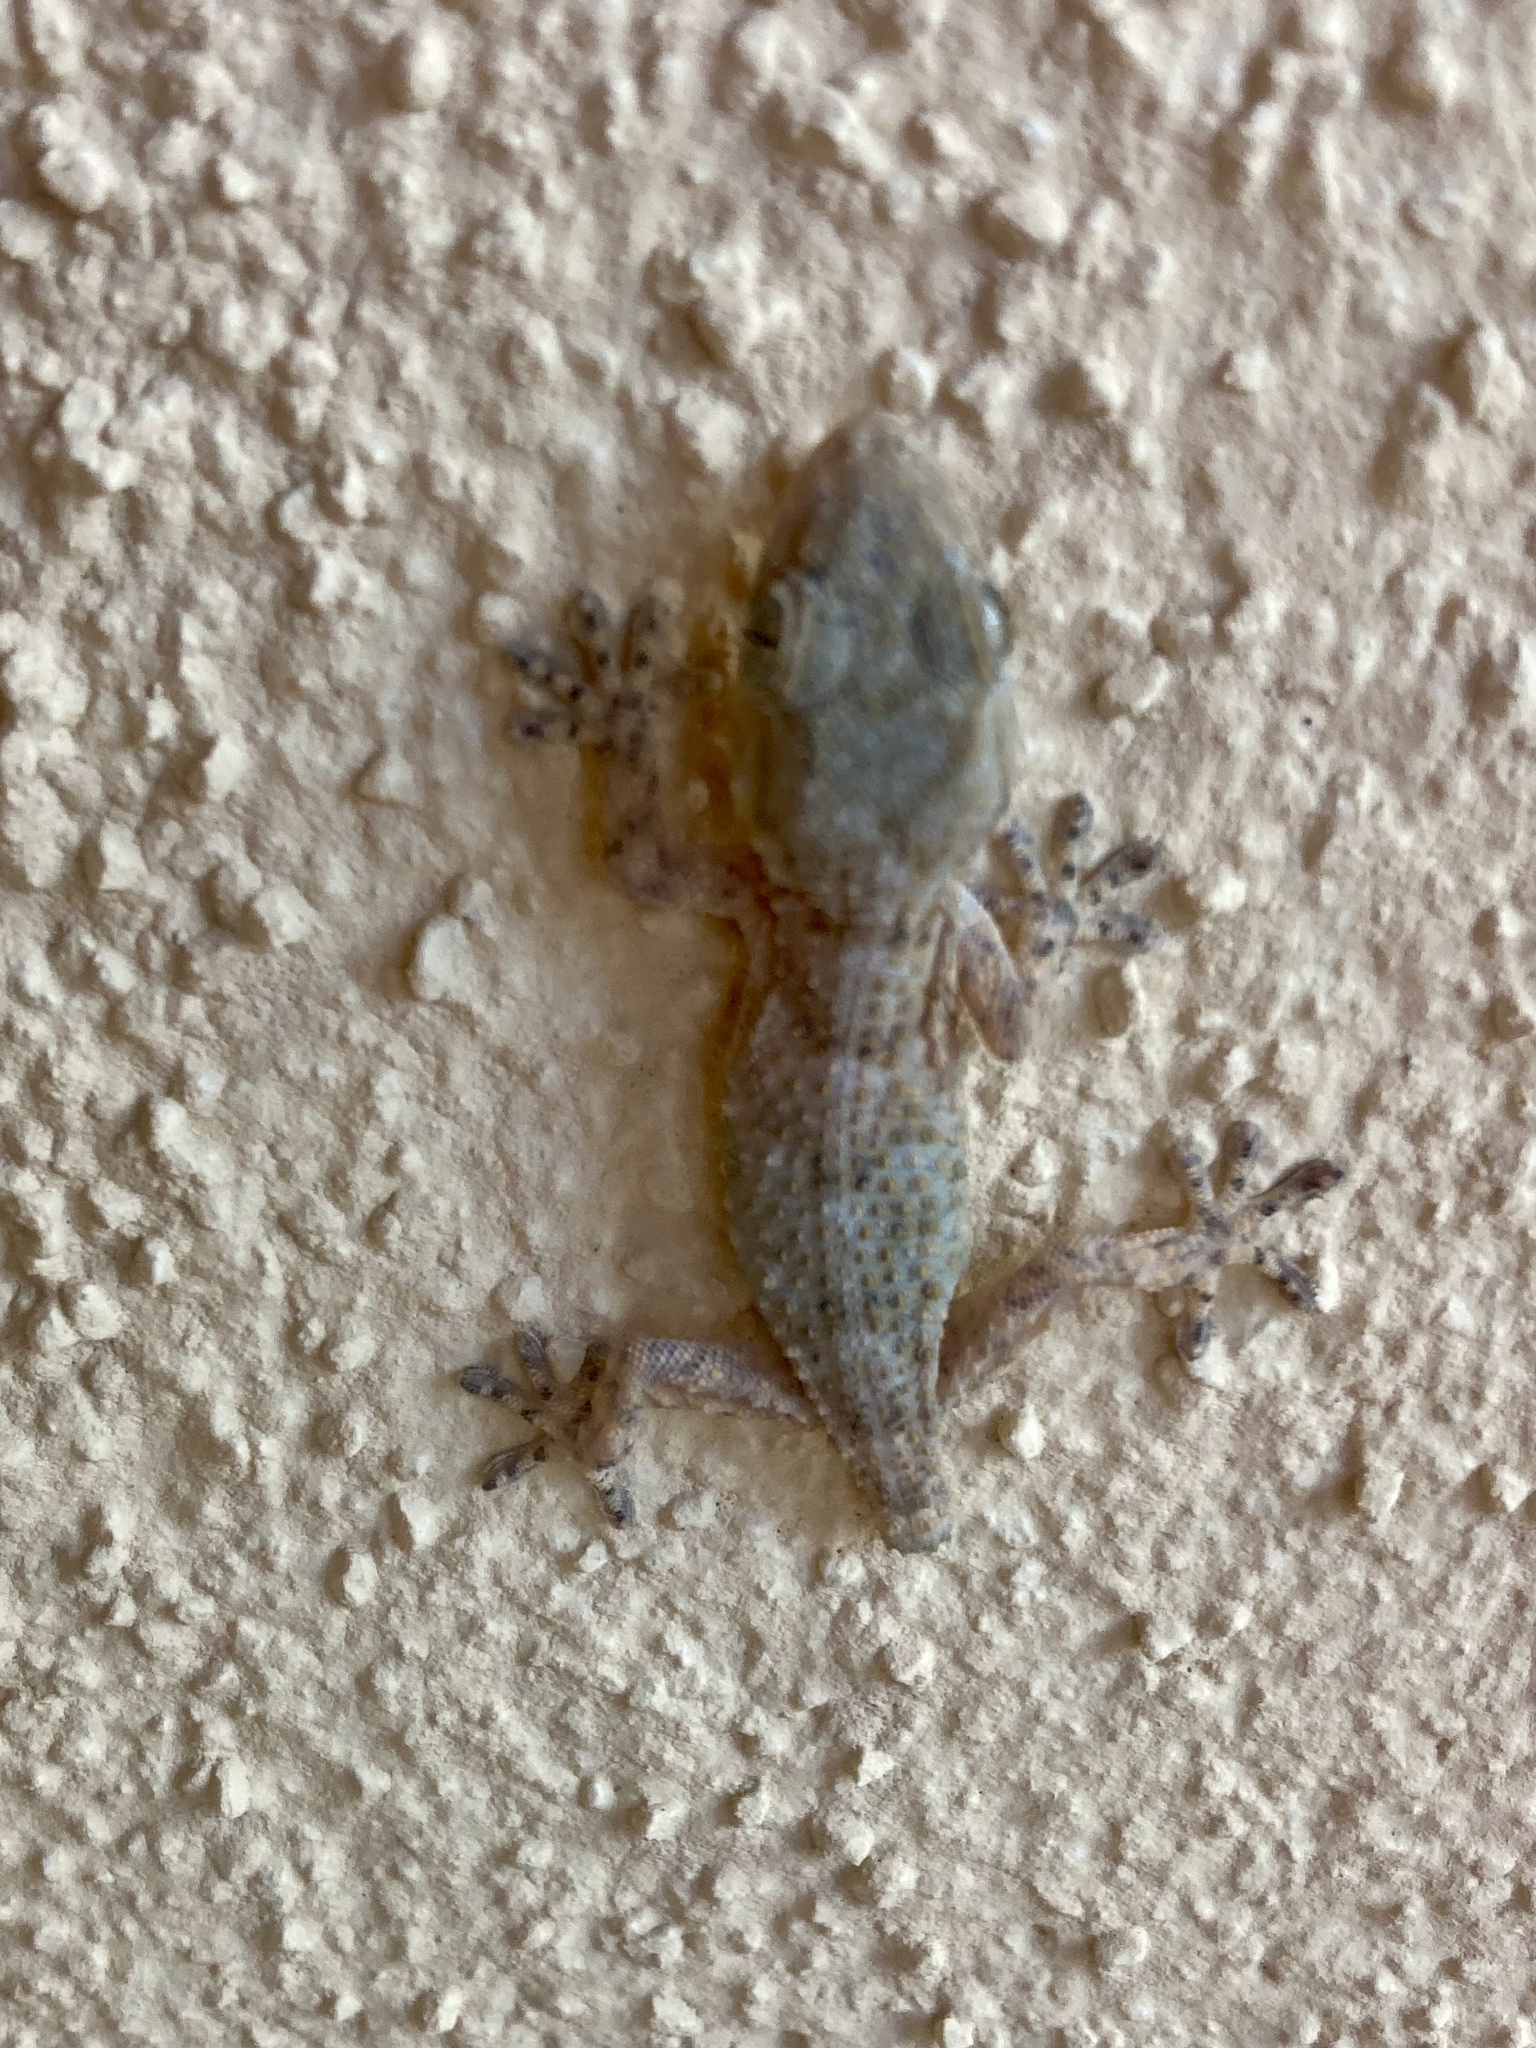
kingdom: Animalia
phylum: Chordata
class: Squamata
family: Phyllodactylidae
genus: Tarentola
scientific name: Tarentola mauritanica
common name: Moorish gecko
